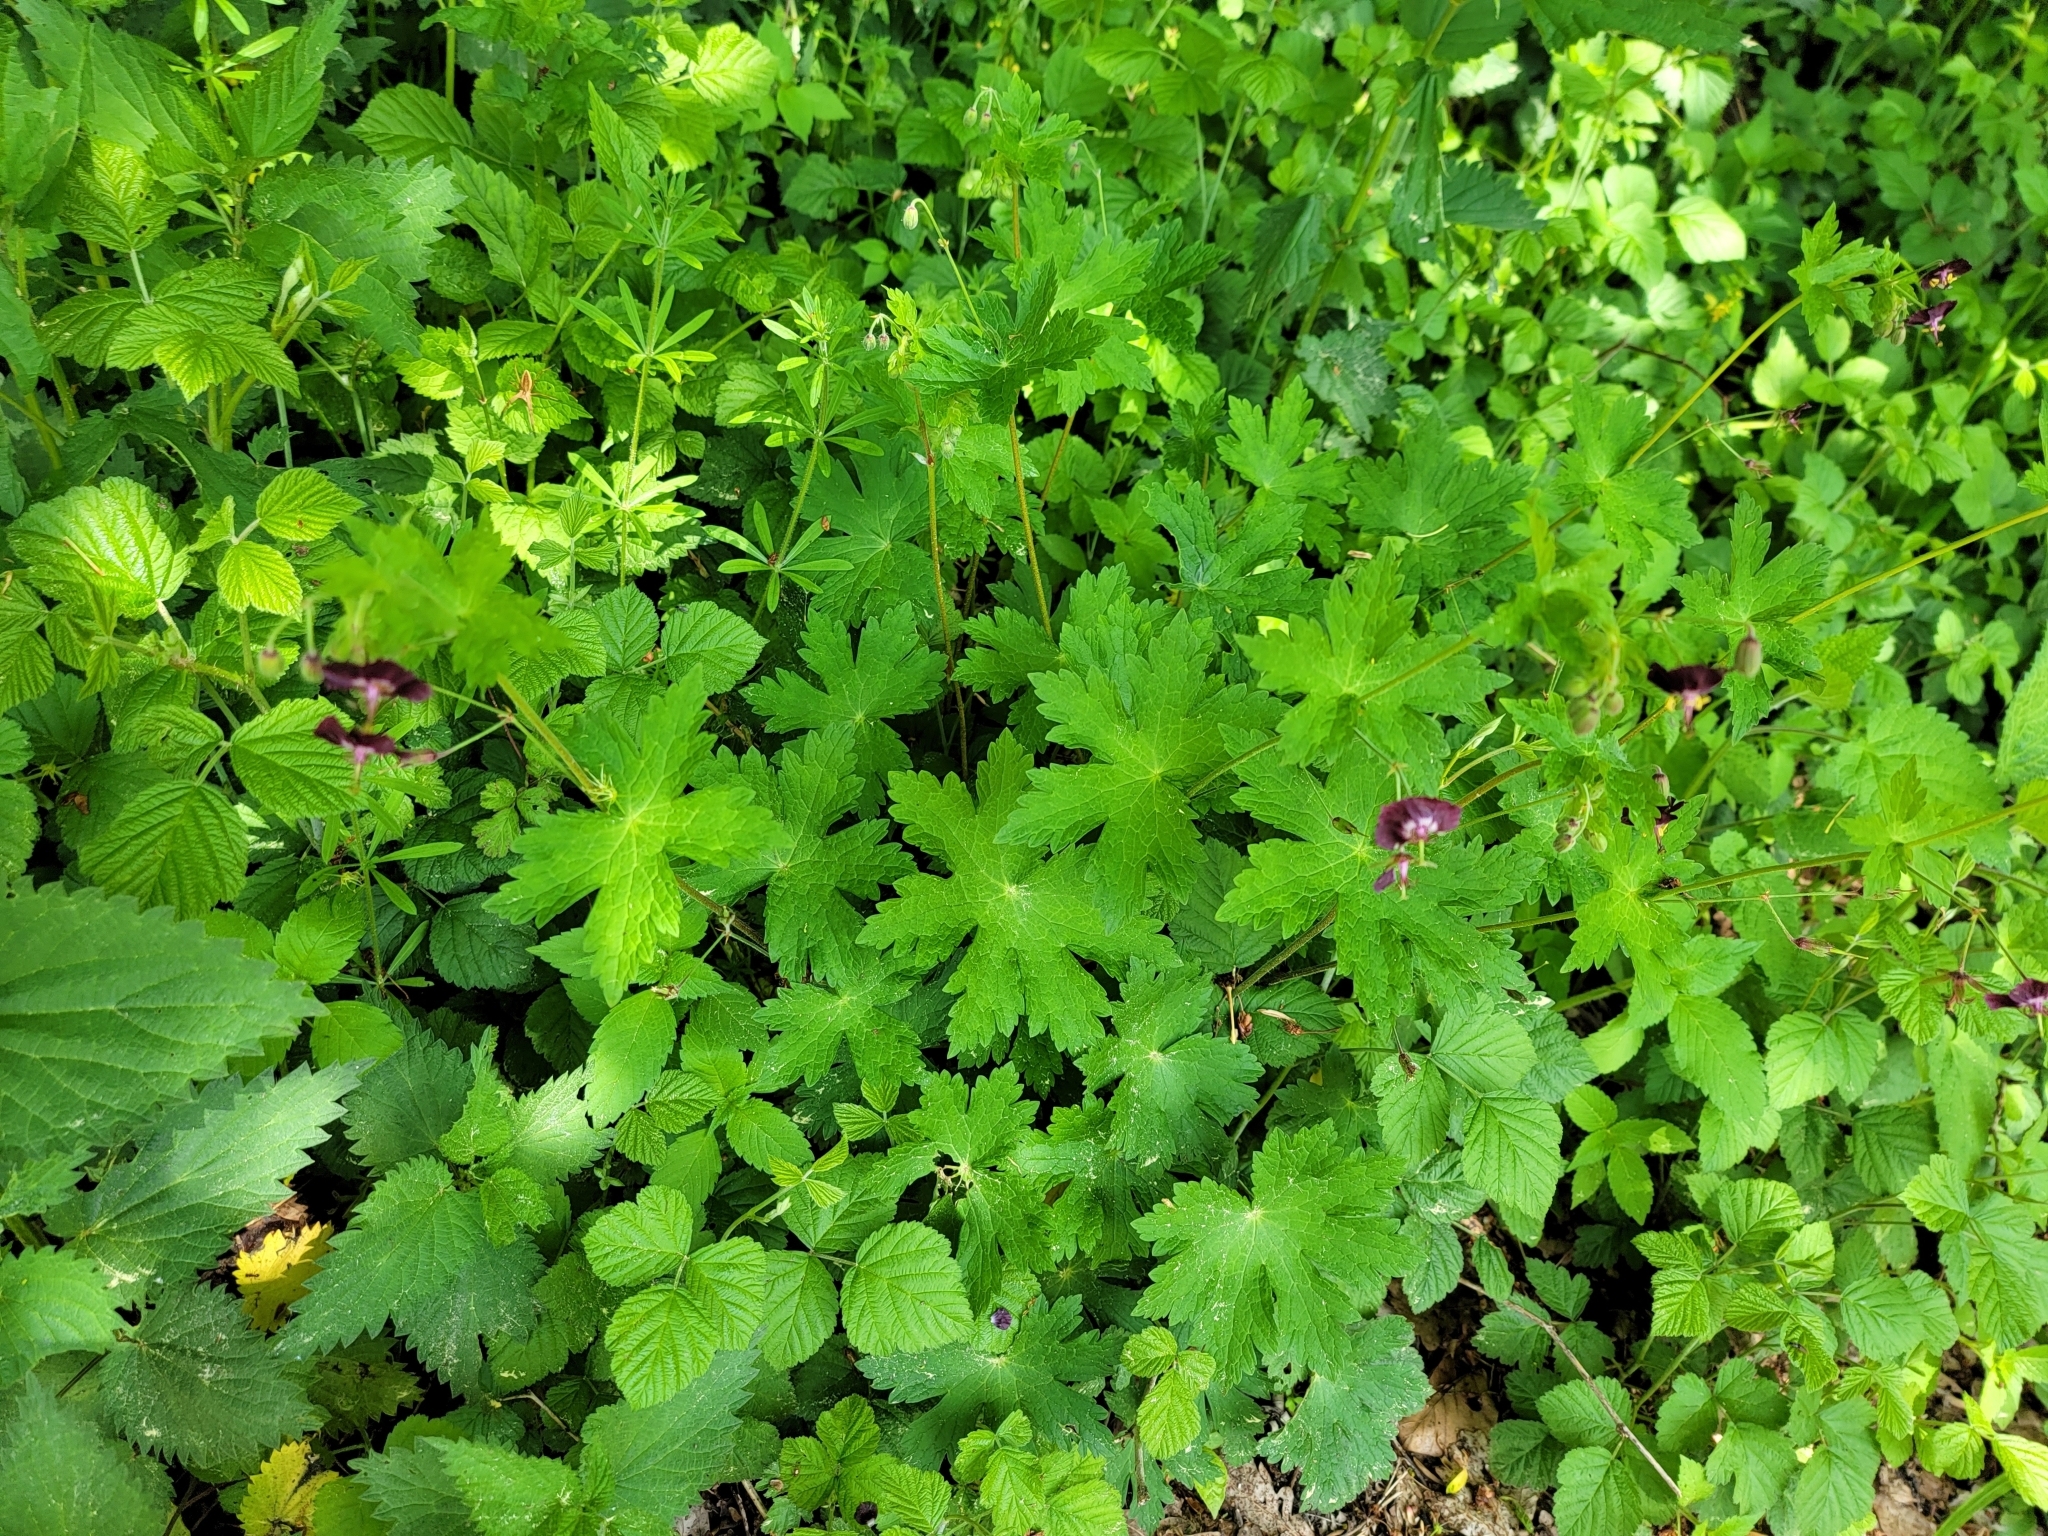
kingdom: Plantae
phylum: Tracheophyta
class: Magnoliopsida
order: Geraniales
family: Geraniaceae
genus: Geranium
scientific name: Geranium phaeum
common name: Dusky crane's-bill
